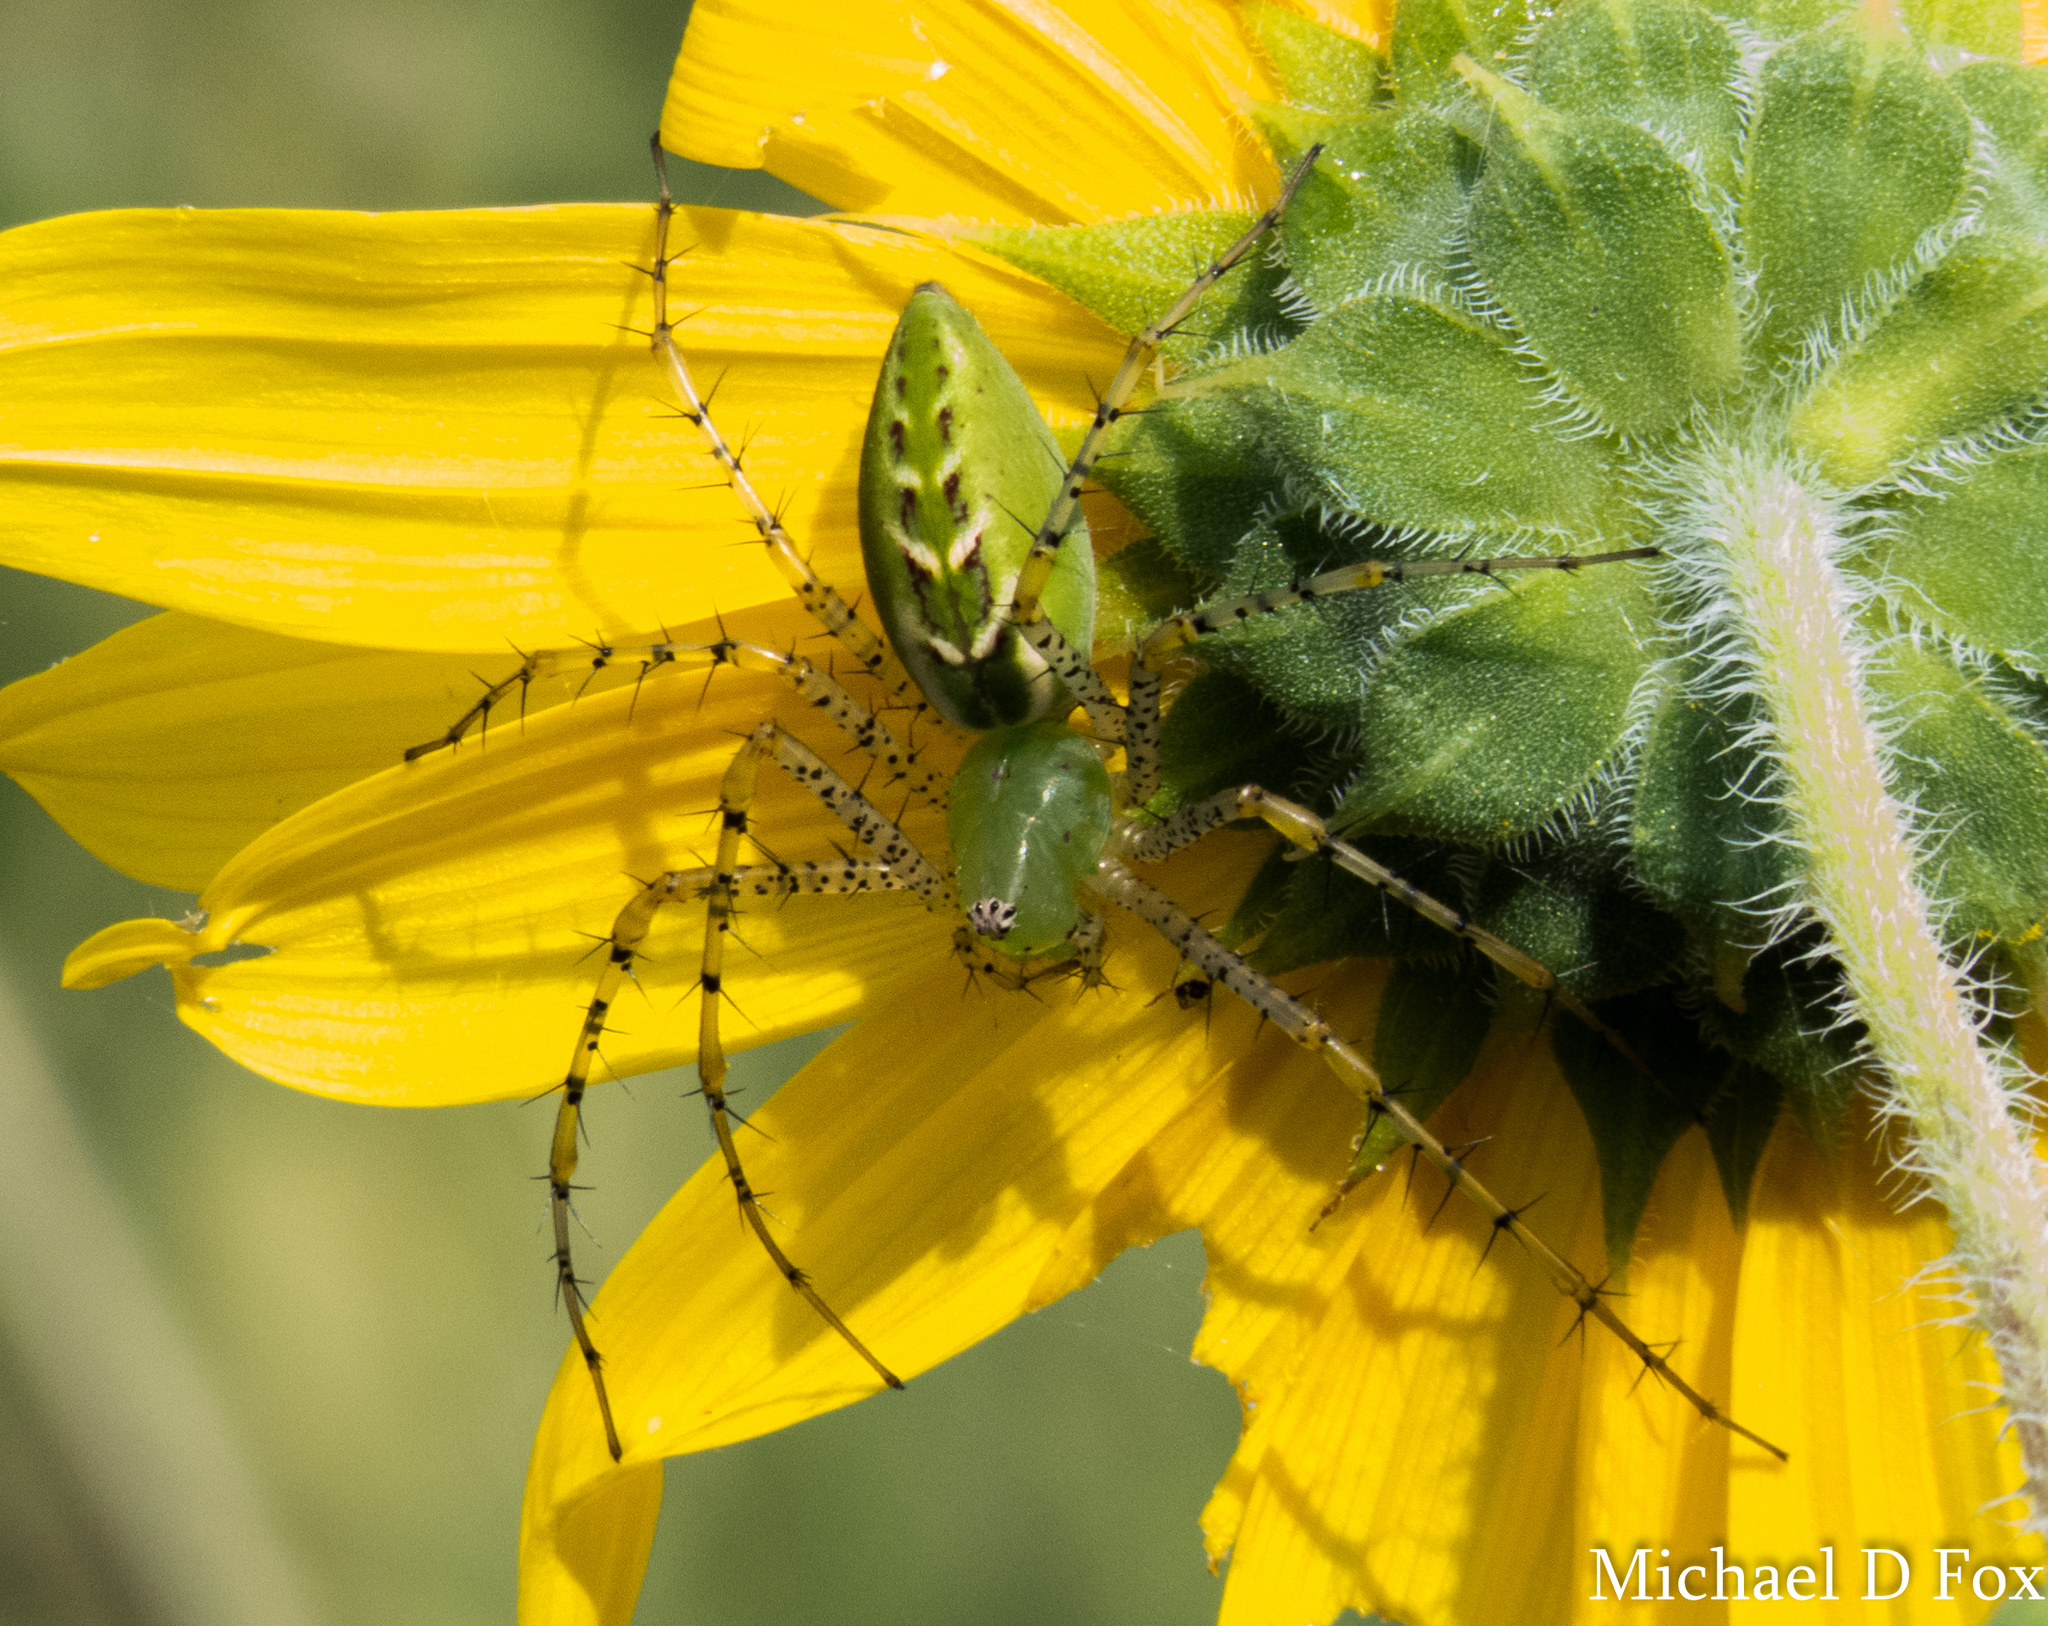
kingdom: Animalia
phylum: Arthropoda
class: Arachnida
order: Araneae
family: Oxyopidae
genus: Peucetia
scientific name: Peucetia viridans
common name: Lynx spiders
